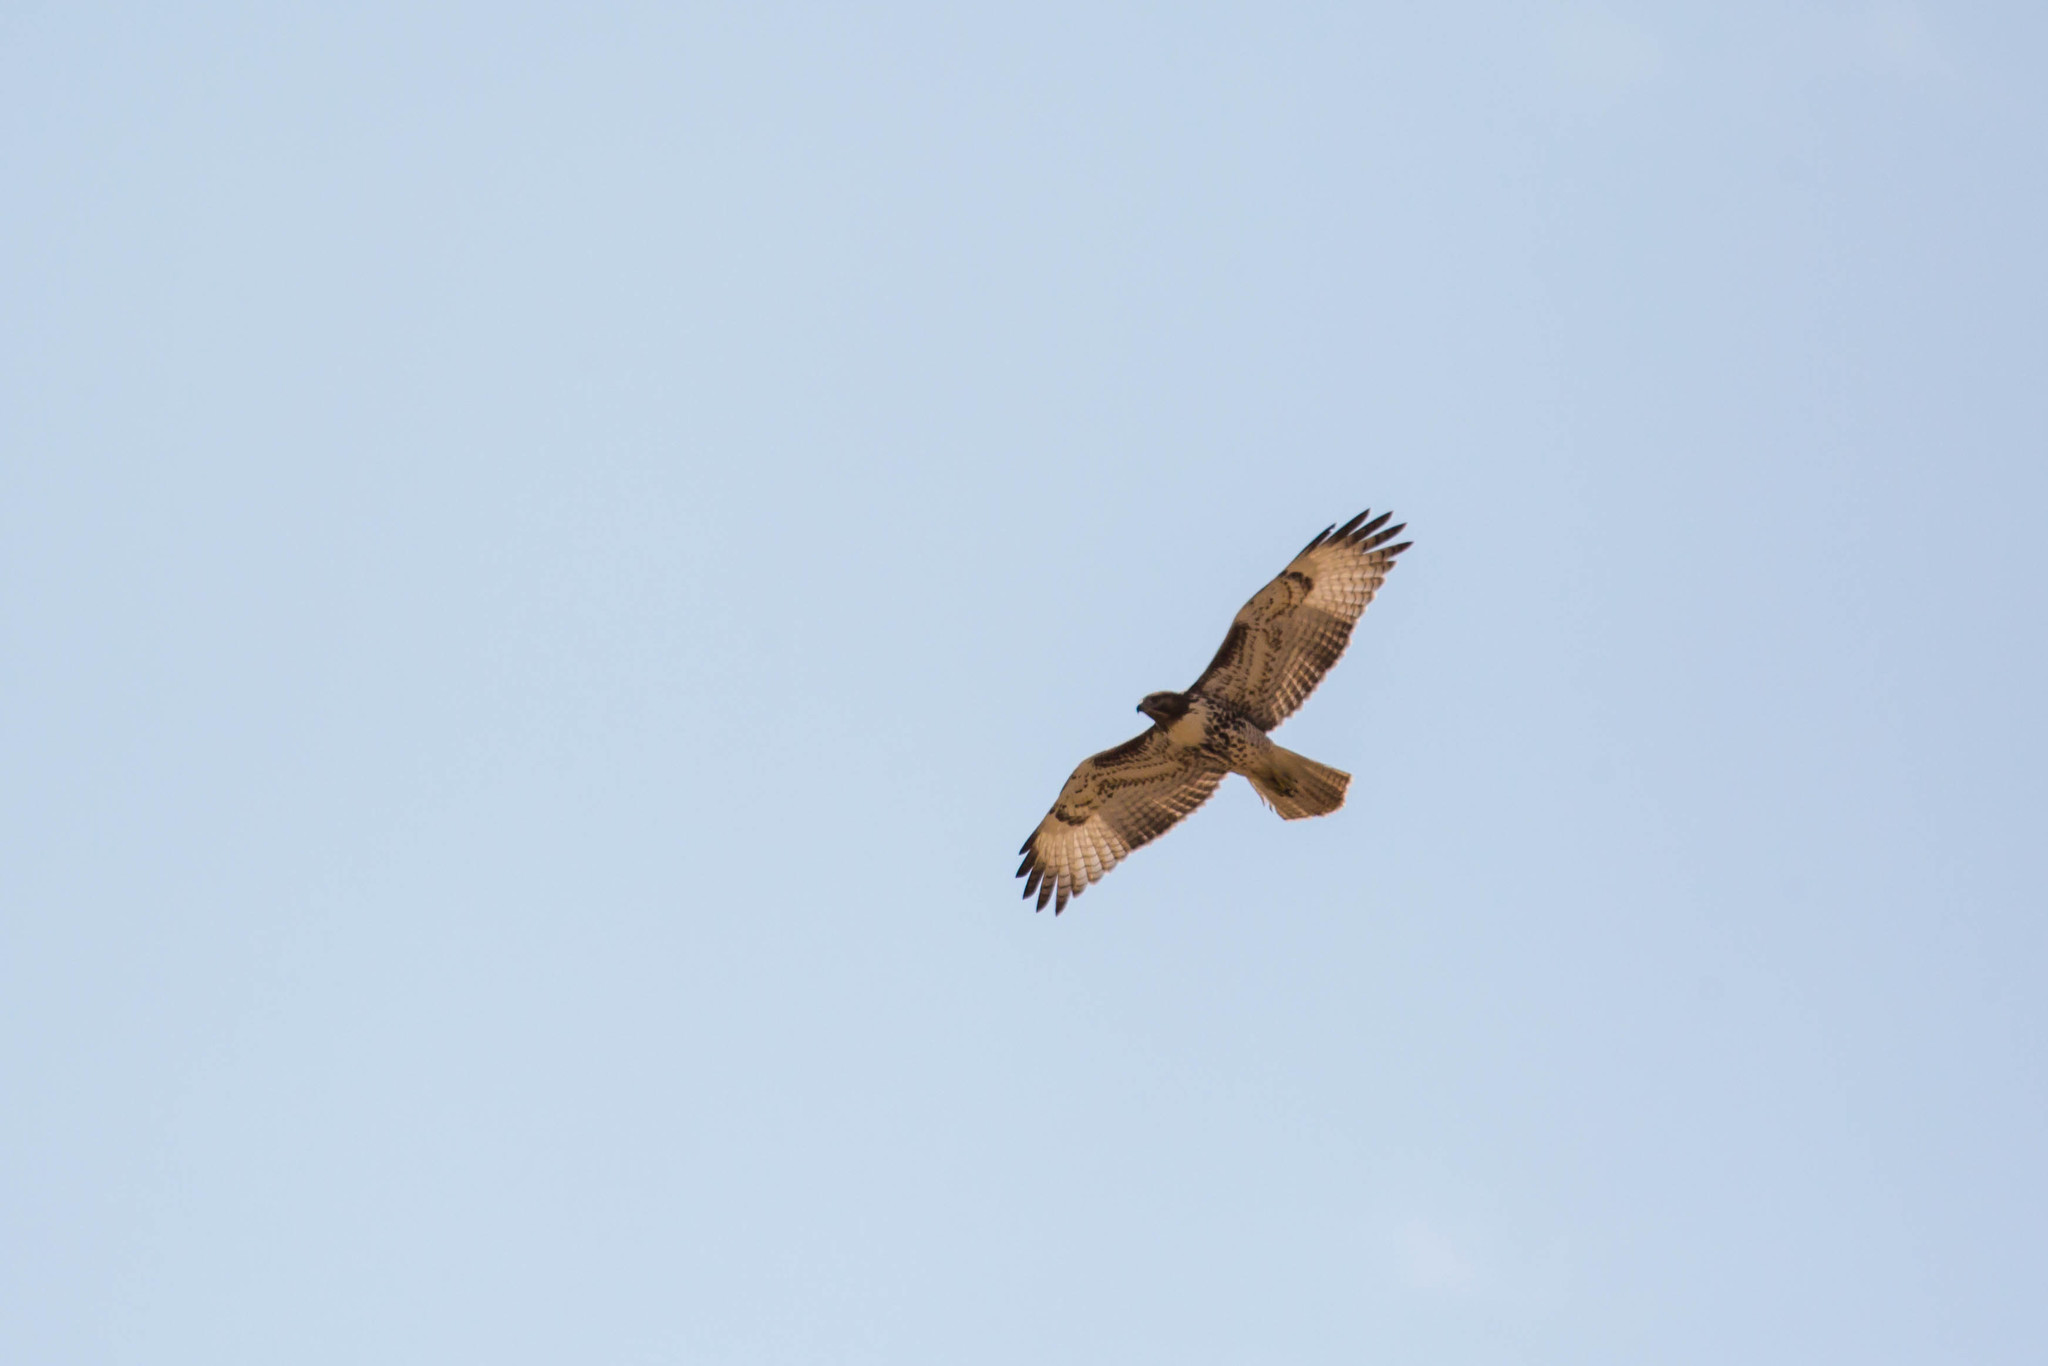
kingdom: Animalia
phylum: Chordata
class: Aves
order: Accipitriformes
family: Accipitridae
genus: Buteo
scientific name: Buteo jamaicensis
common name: Red-tailed hawk
